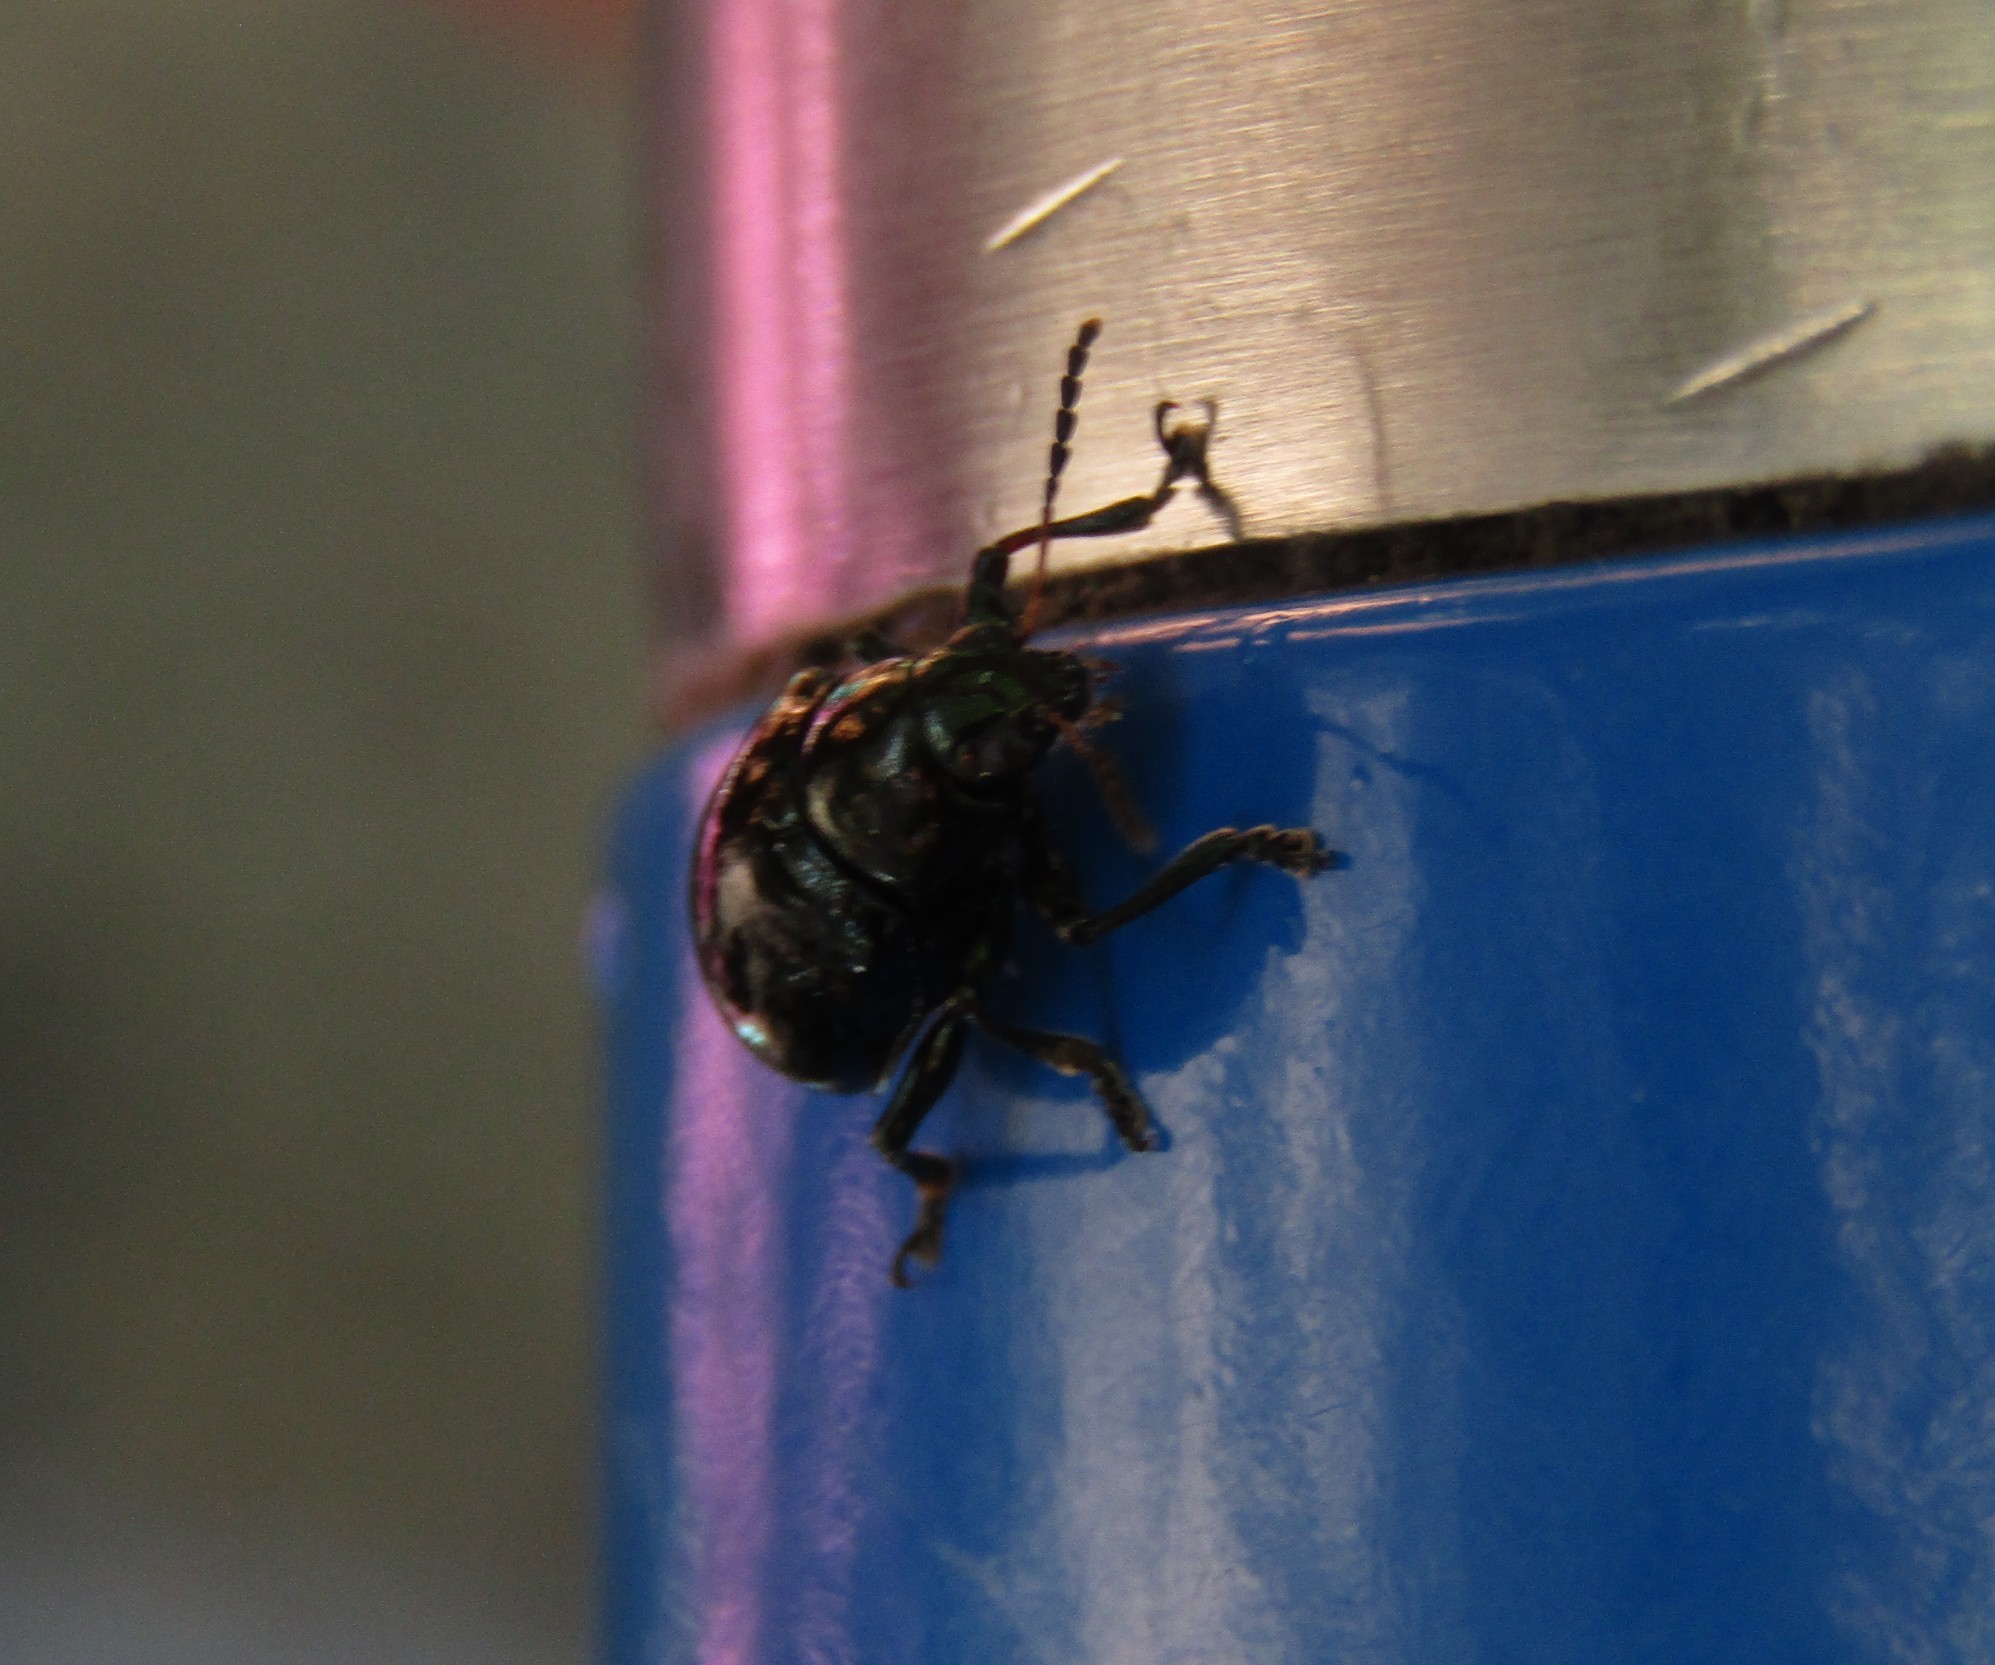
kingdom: Animalia
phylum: Arthropoda
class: Insecta
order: Coleoptera
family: Chrysomelidae
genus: Typophorus
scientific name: Typophorus nigritus
